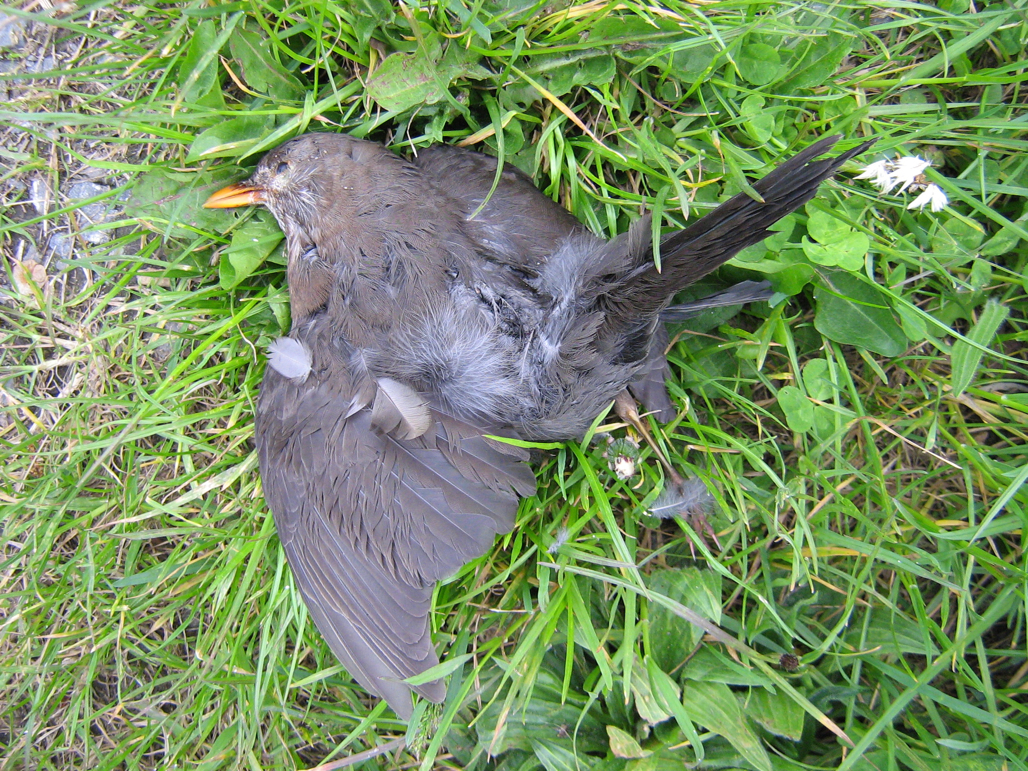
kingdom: Animalia
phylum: Chordata
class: Aves
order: Passeriformes
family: Turdidae
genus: Turdus
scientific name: Turdus merula
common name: Common blackbird
